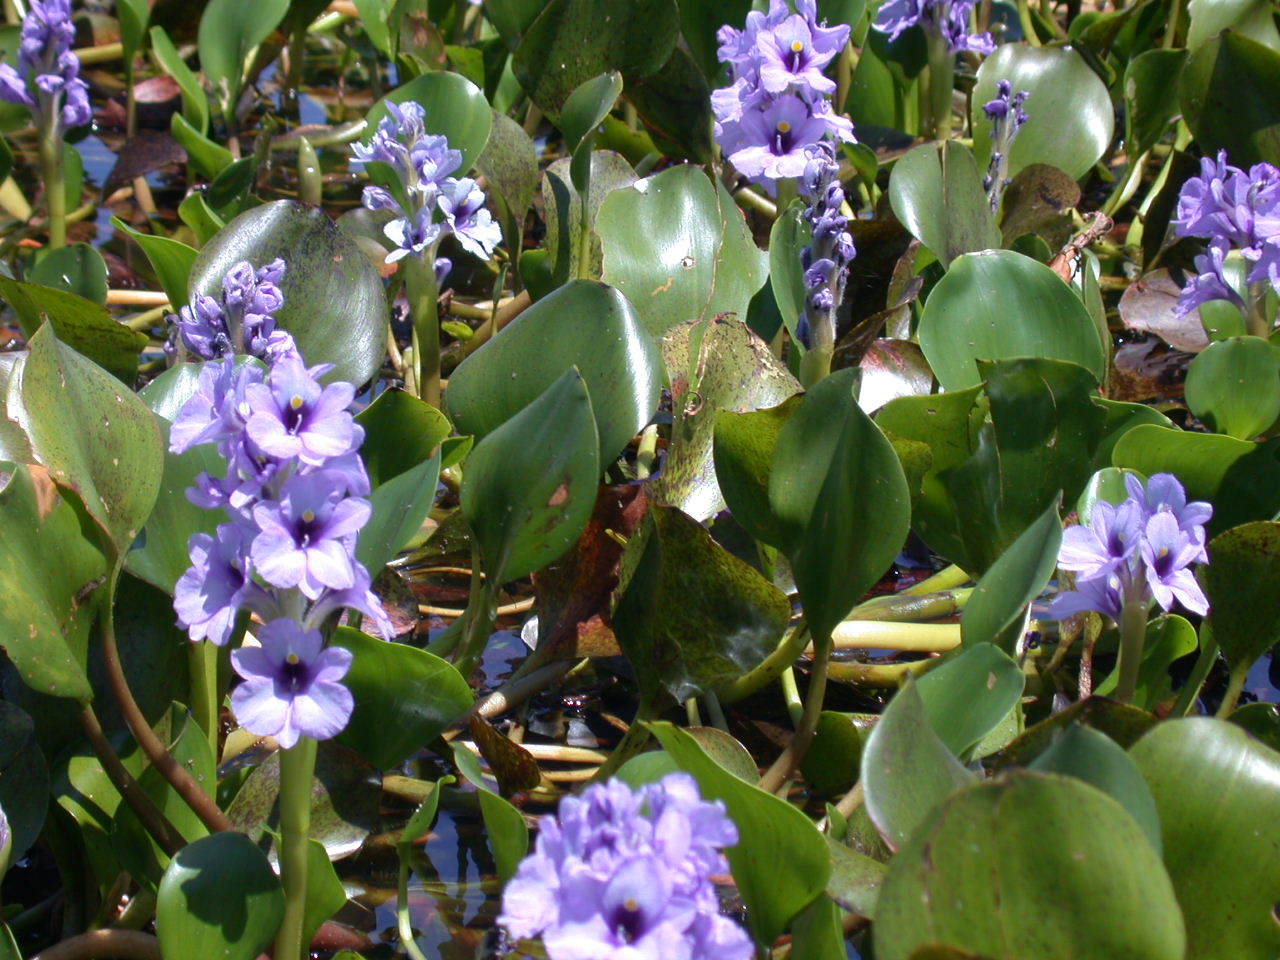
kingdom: Plantae
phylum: Tracheophyta
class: Liliopsida
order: Commelinales
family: Pontederiaceae
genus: Pontederia
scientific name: Pontederia azurea
